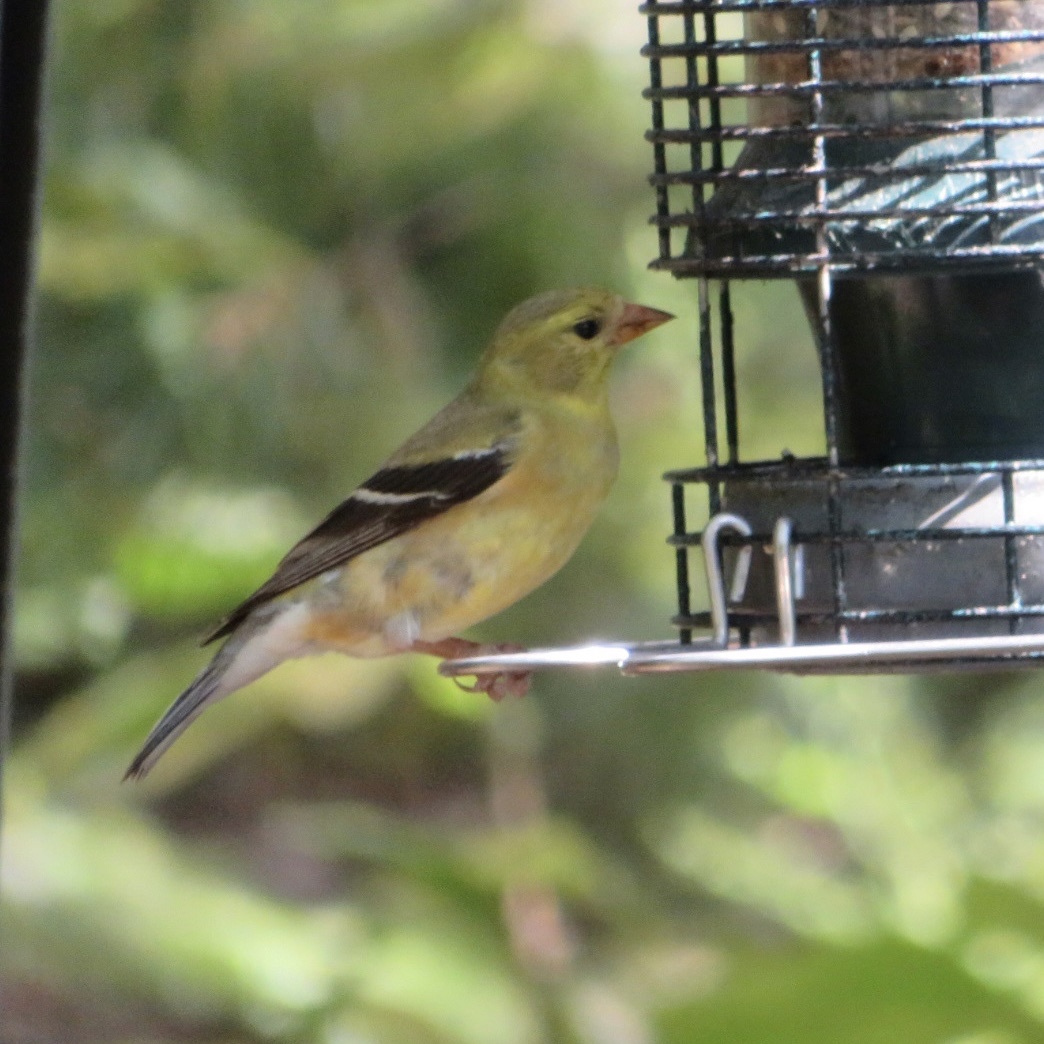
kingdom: Animalia
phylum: Chordata
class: Aves
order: Passeriformes
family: Fringillidae
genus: Spinus
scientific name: Spinus tristis
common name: American goldfinch
